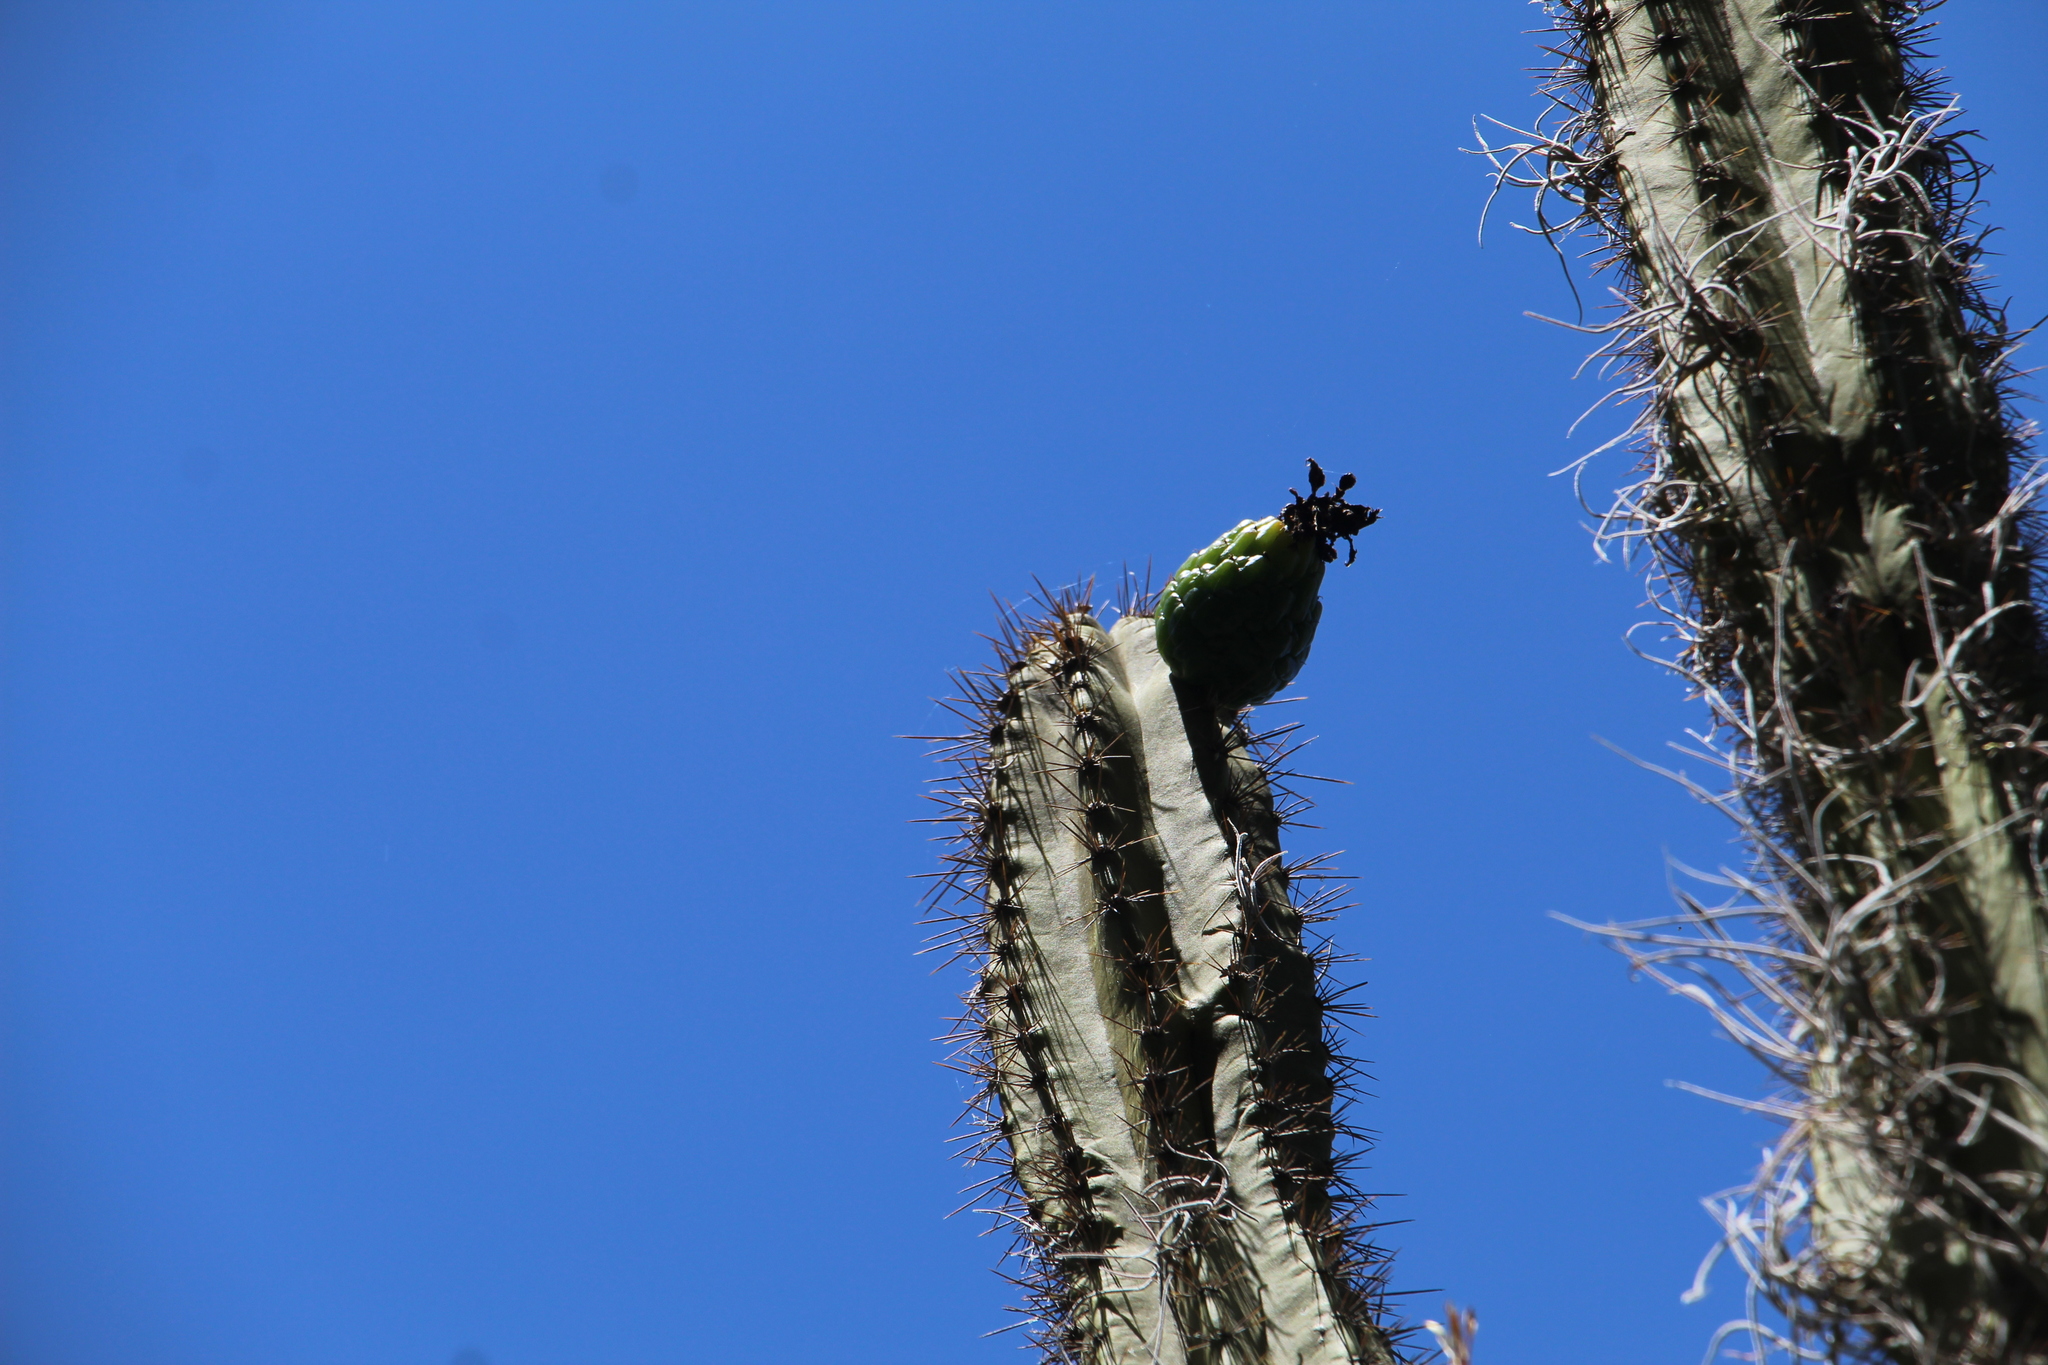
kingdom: Plantae
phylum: Tracheophyta
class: Magnoliopsida
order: Caryophyllales
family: Cactaceae
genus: Stenocereus
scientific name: Stenocereus griseus
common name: Tall candelabra cactus
